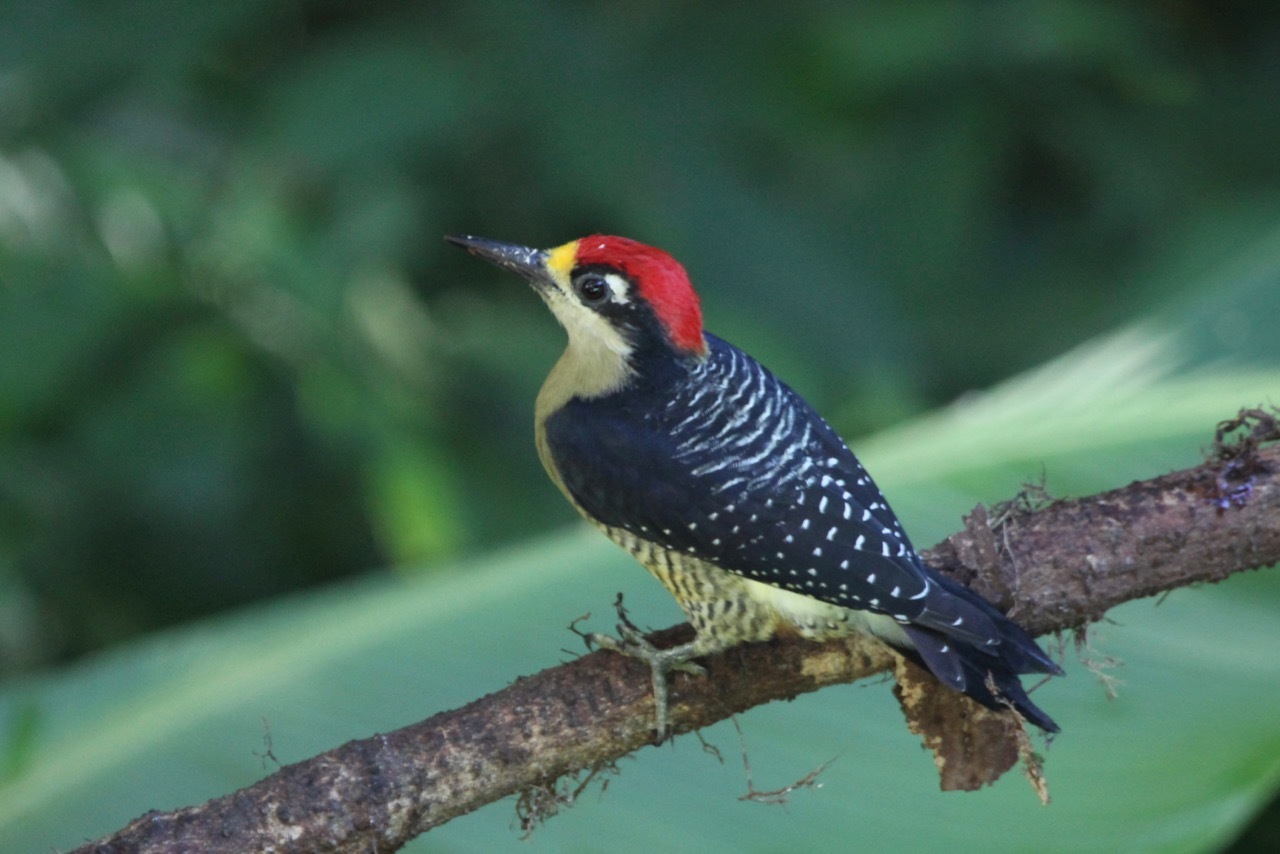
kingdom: Animalia
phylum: Chordata
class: Aves
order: Piciformes
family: Picidae
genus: Melanerpes
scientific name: Melanerpes pucherani
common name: Black-cheeked woodpecker
